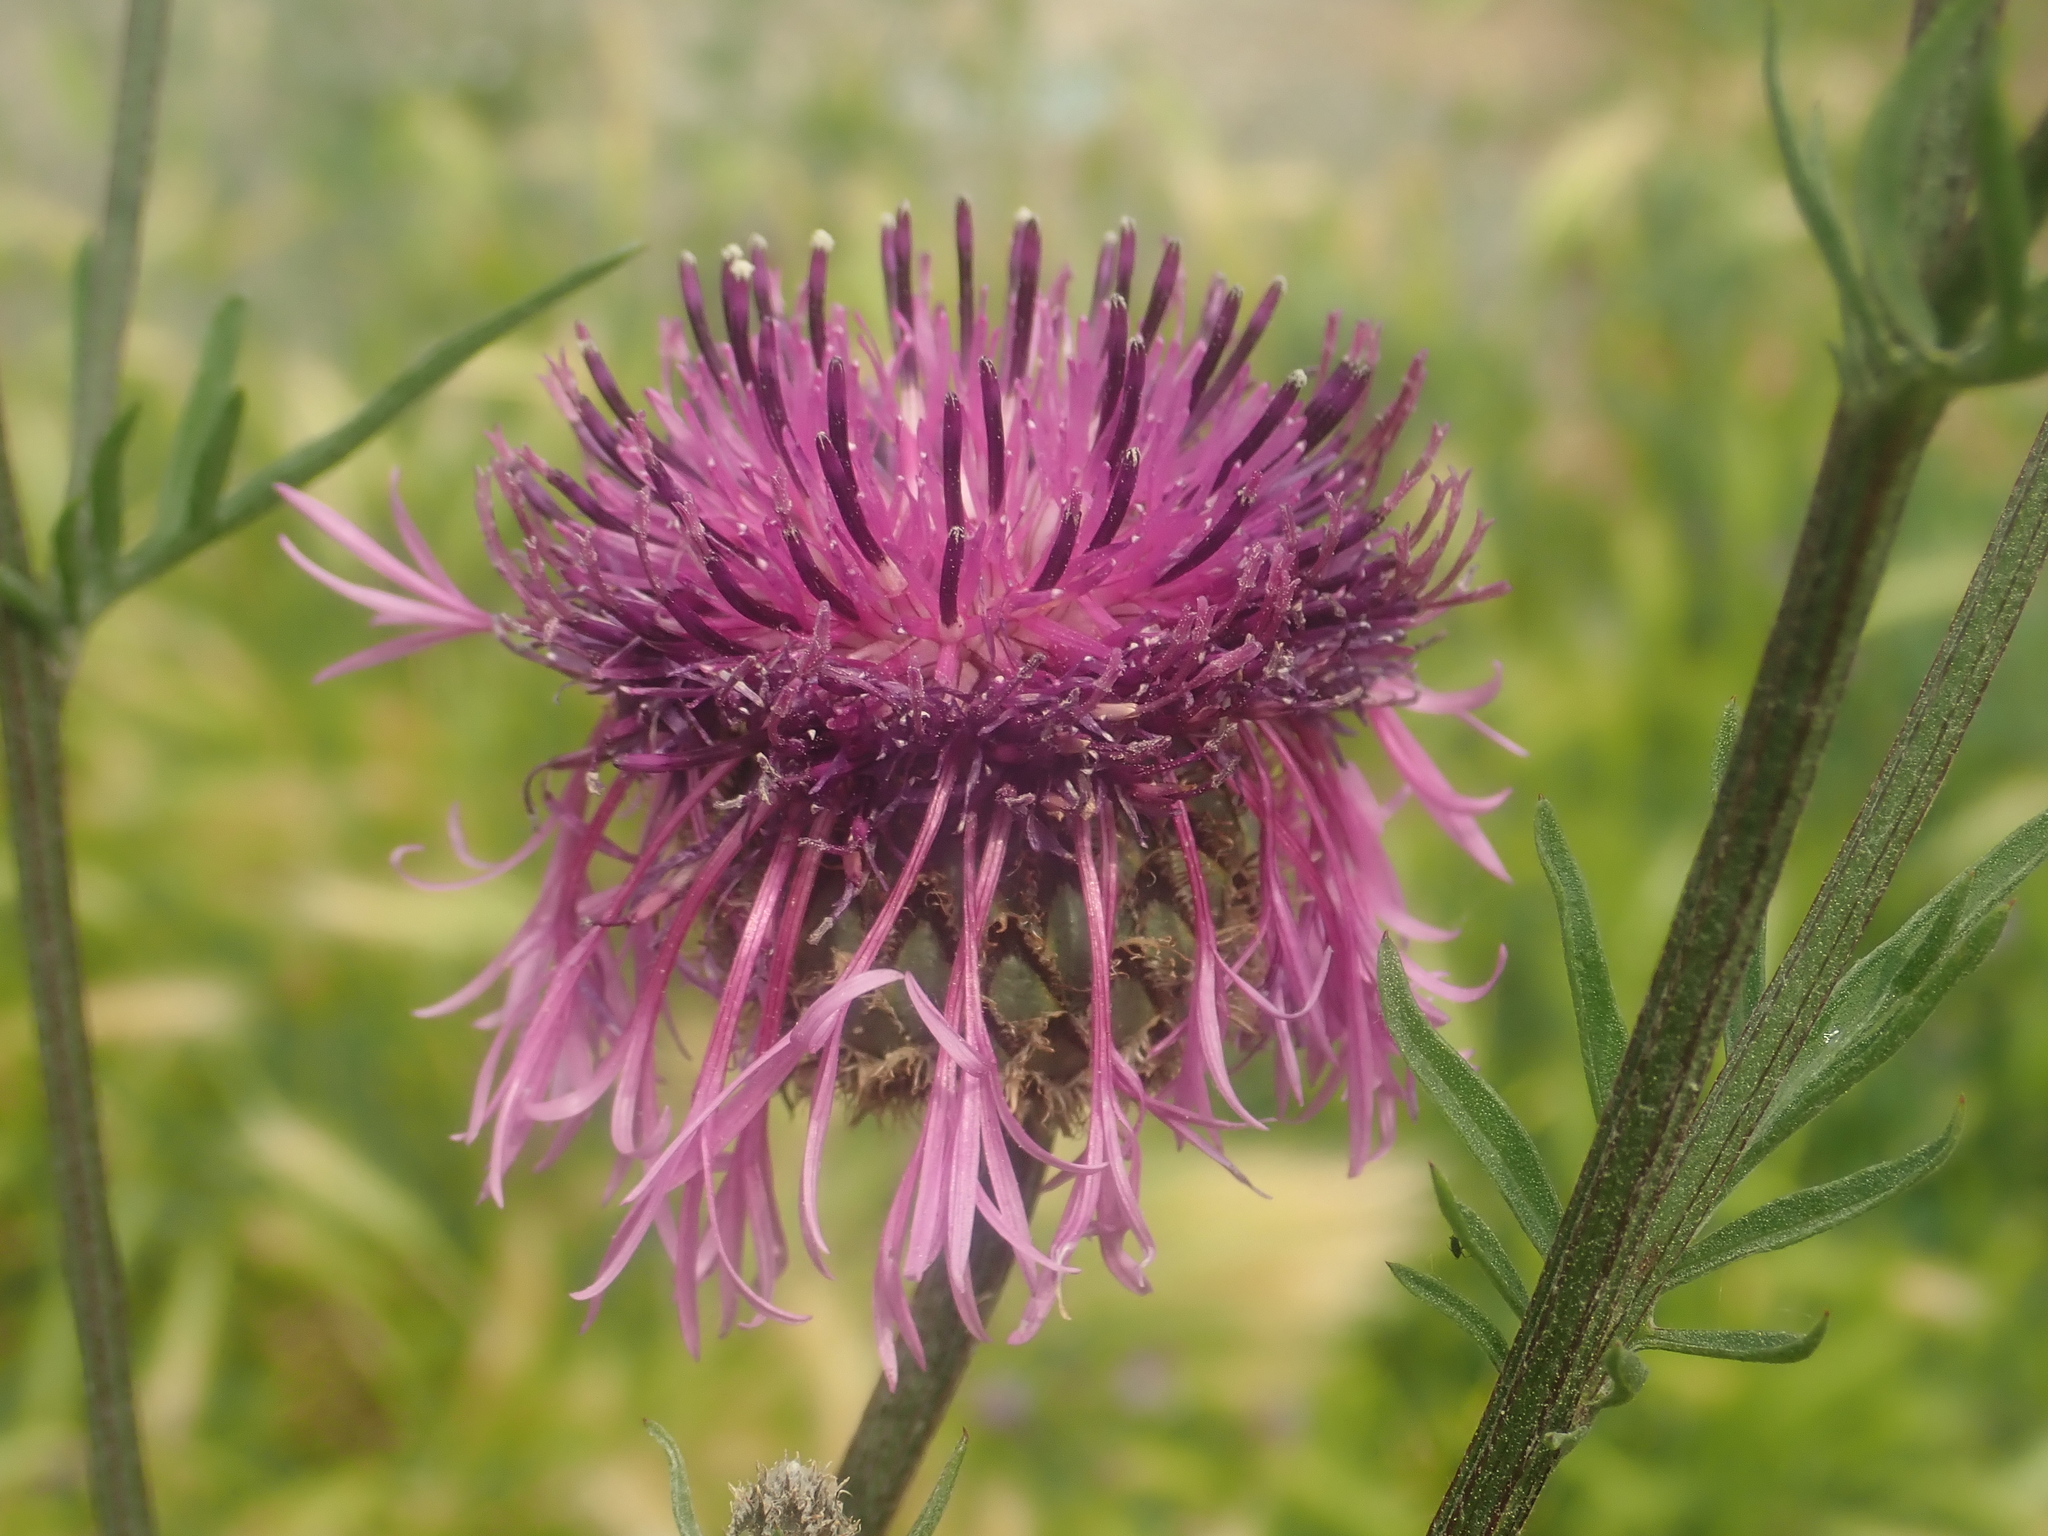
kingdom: Plantae
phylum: Tracheophyta
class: Magnoliopsida
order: Asterales
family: Asteraceae
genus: Centaurea
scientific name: Centaurea scabiosa
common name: Greater knapweed
